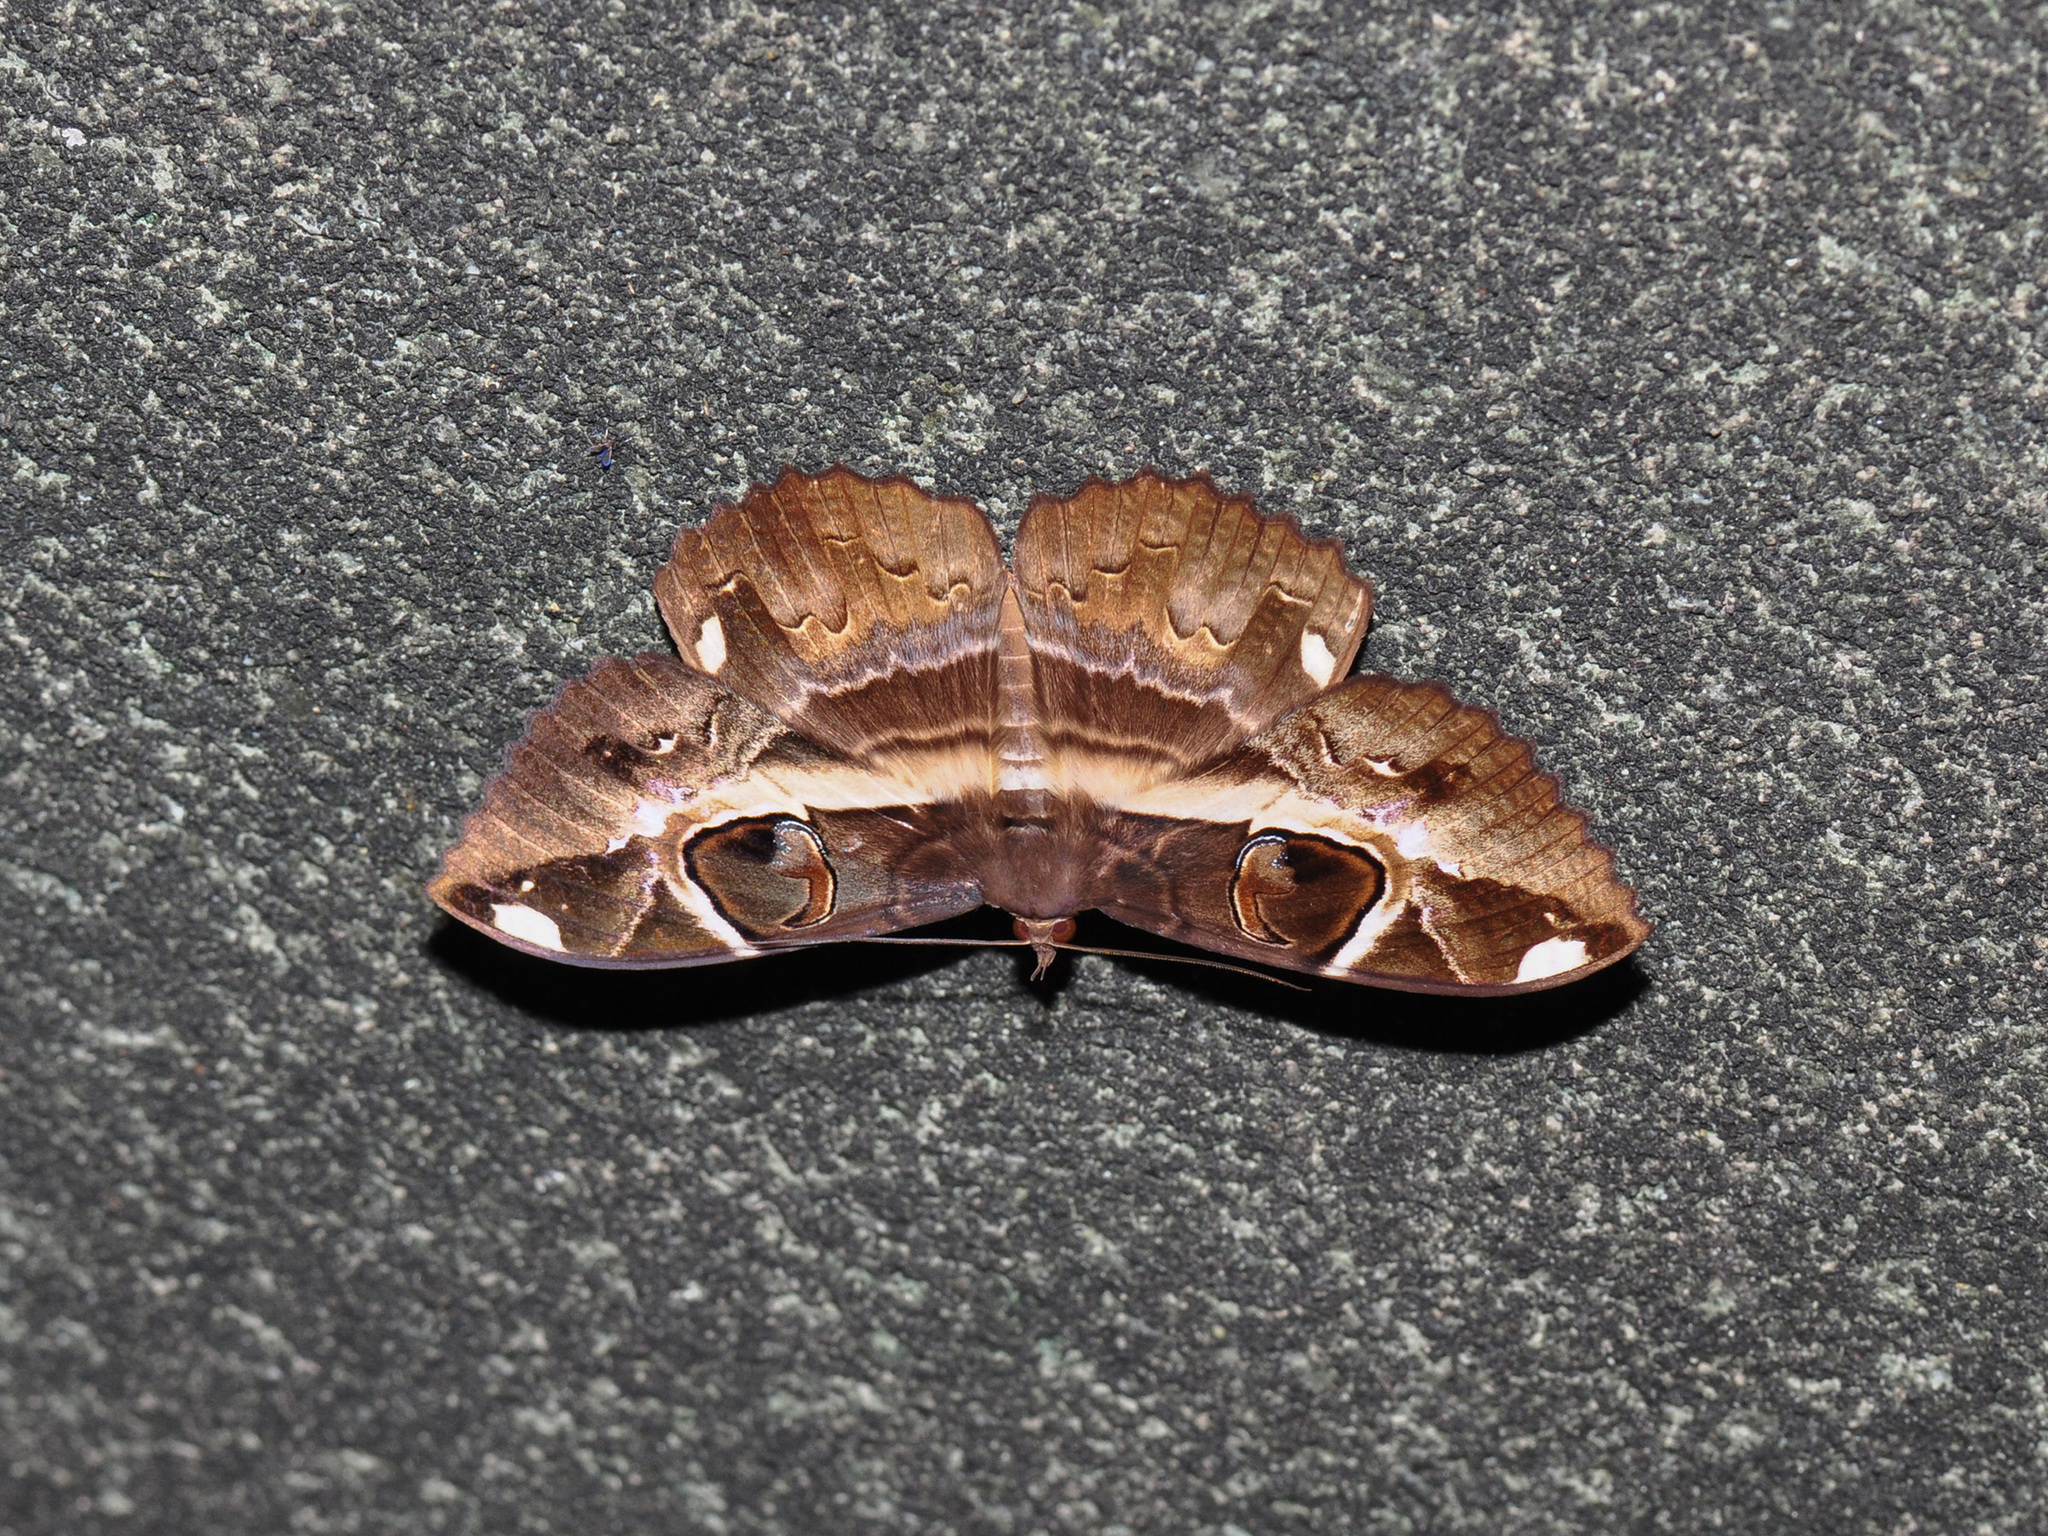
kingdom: Animalia
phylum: Arthropoda
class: Insecta
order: Lepidoptera
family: Erebidae
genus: Erebus
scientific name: Erebus ephesperis
